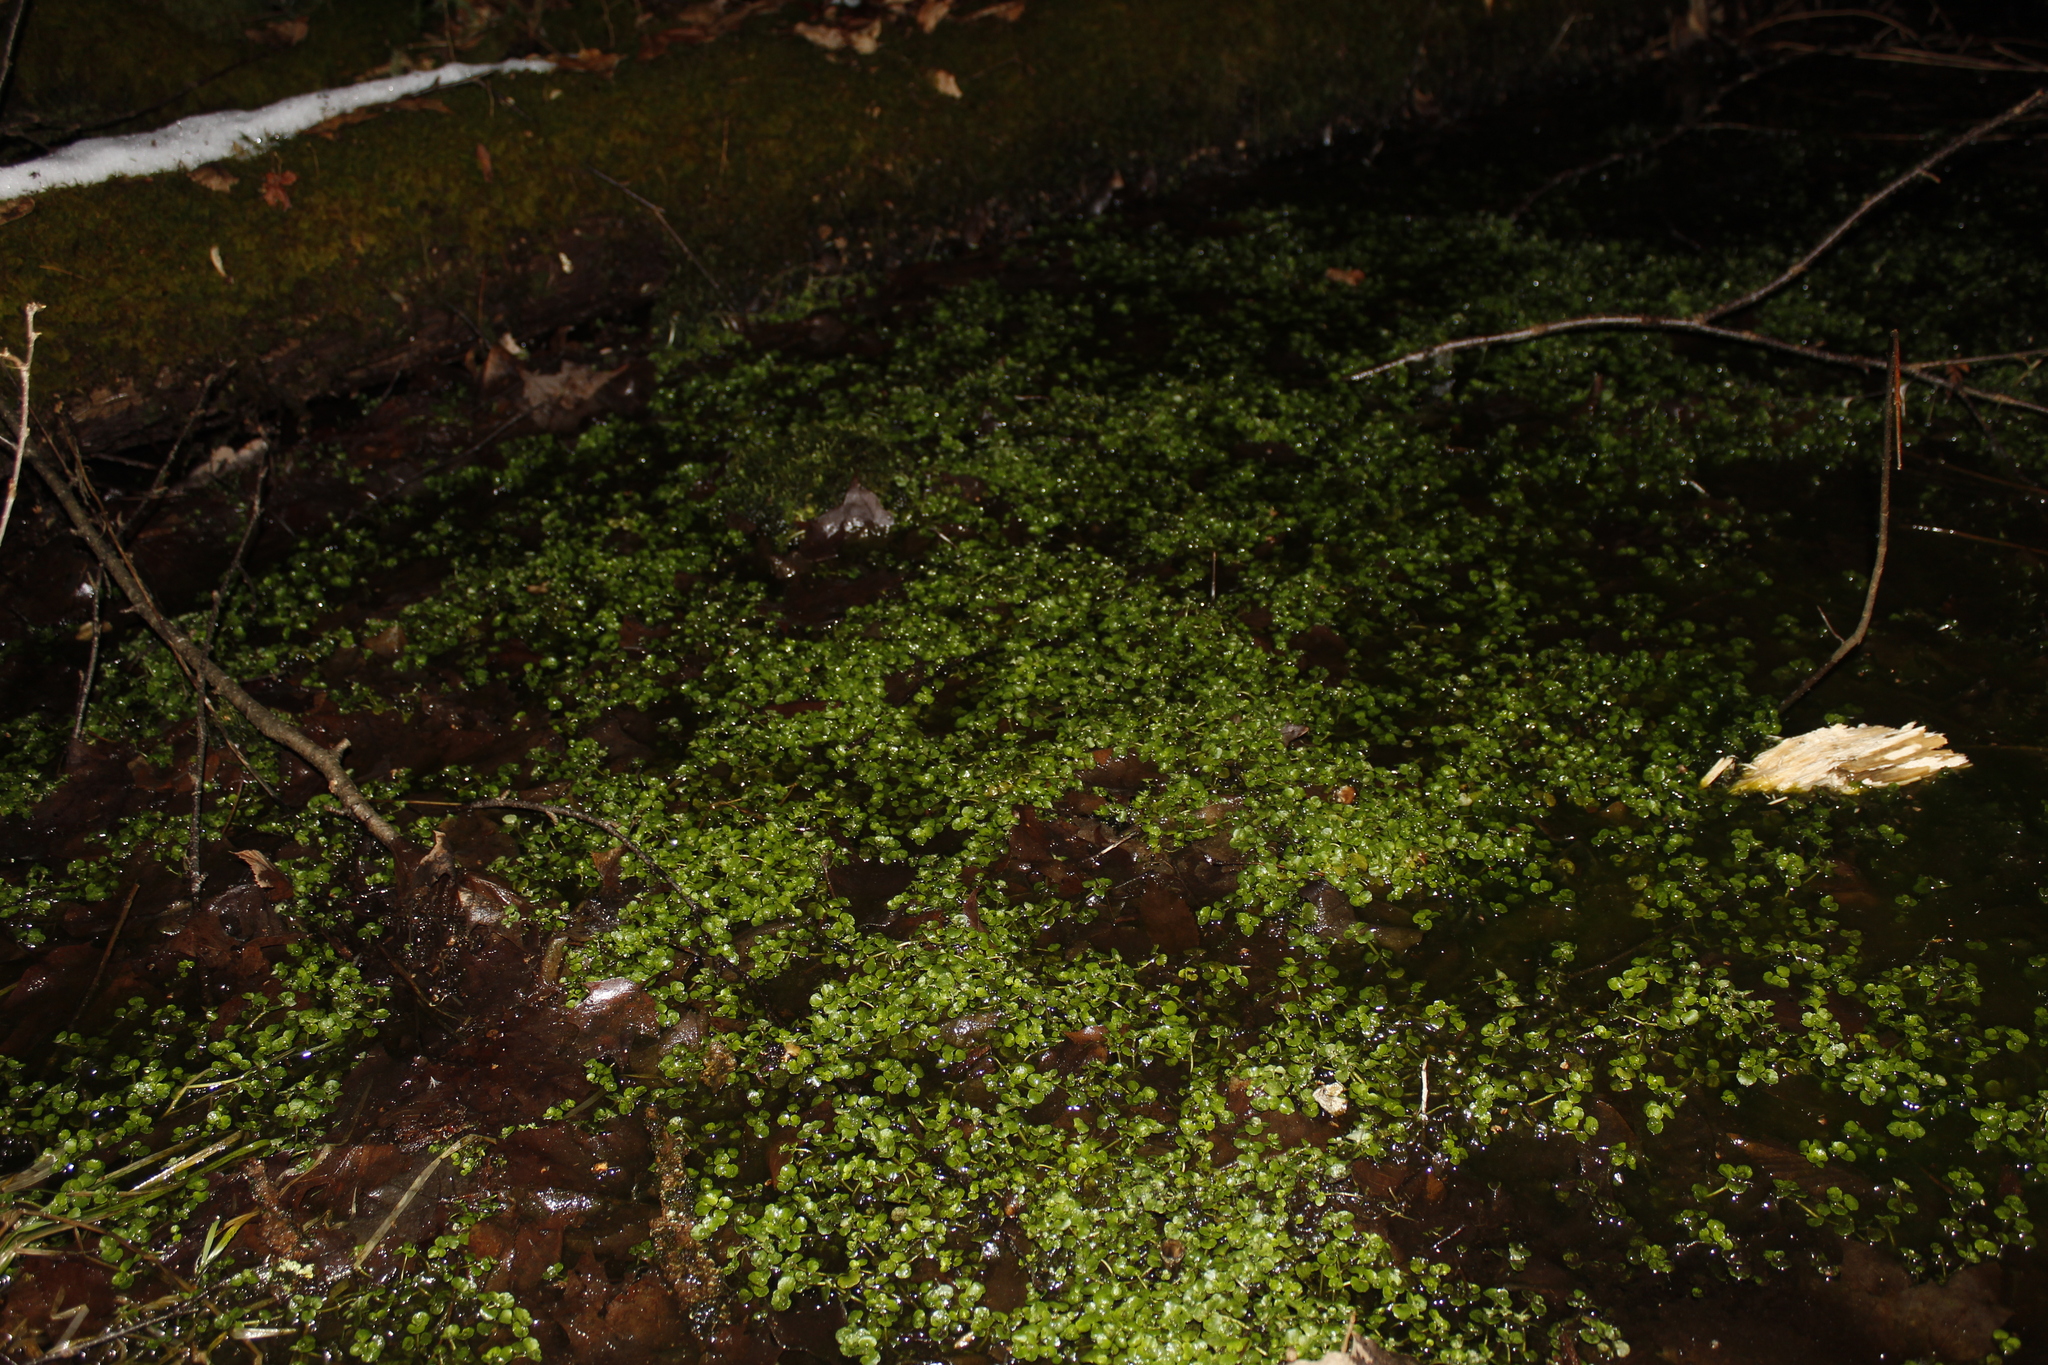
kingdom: Plantae
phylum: Tracheophyta
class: Magnoliopsida
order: Saxifragales
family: Saxifragaceae
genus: Chrysosplenium
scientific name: Chrysosplenium americanum
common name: American golden-saxifrage
